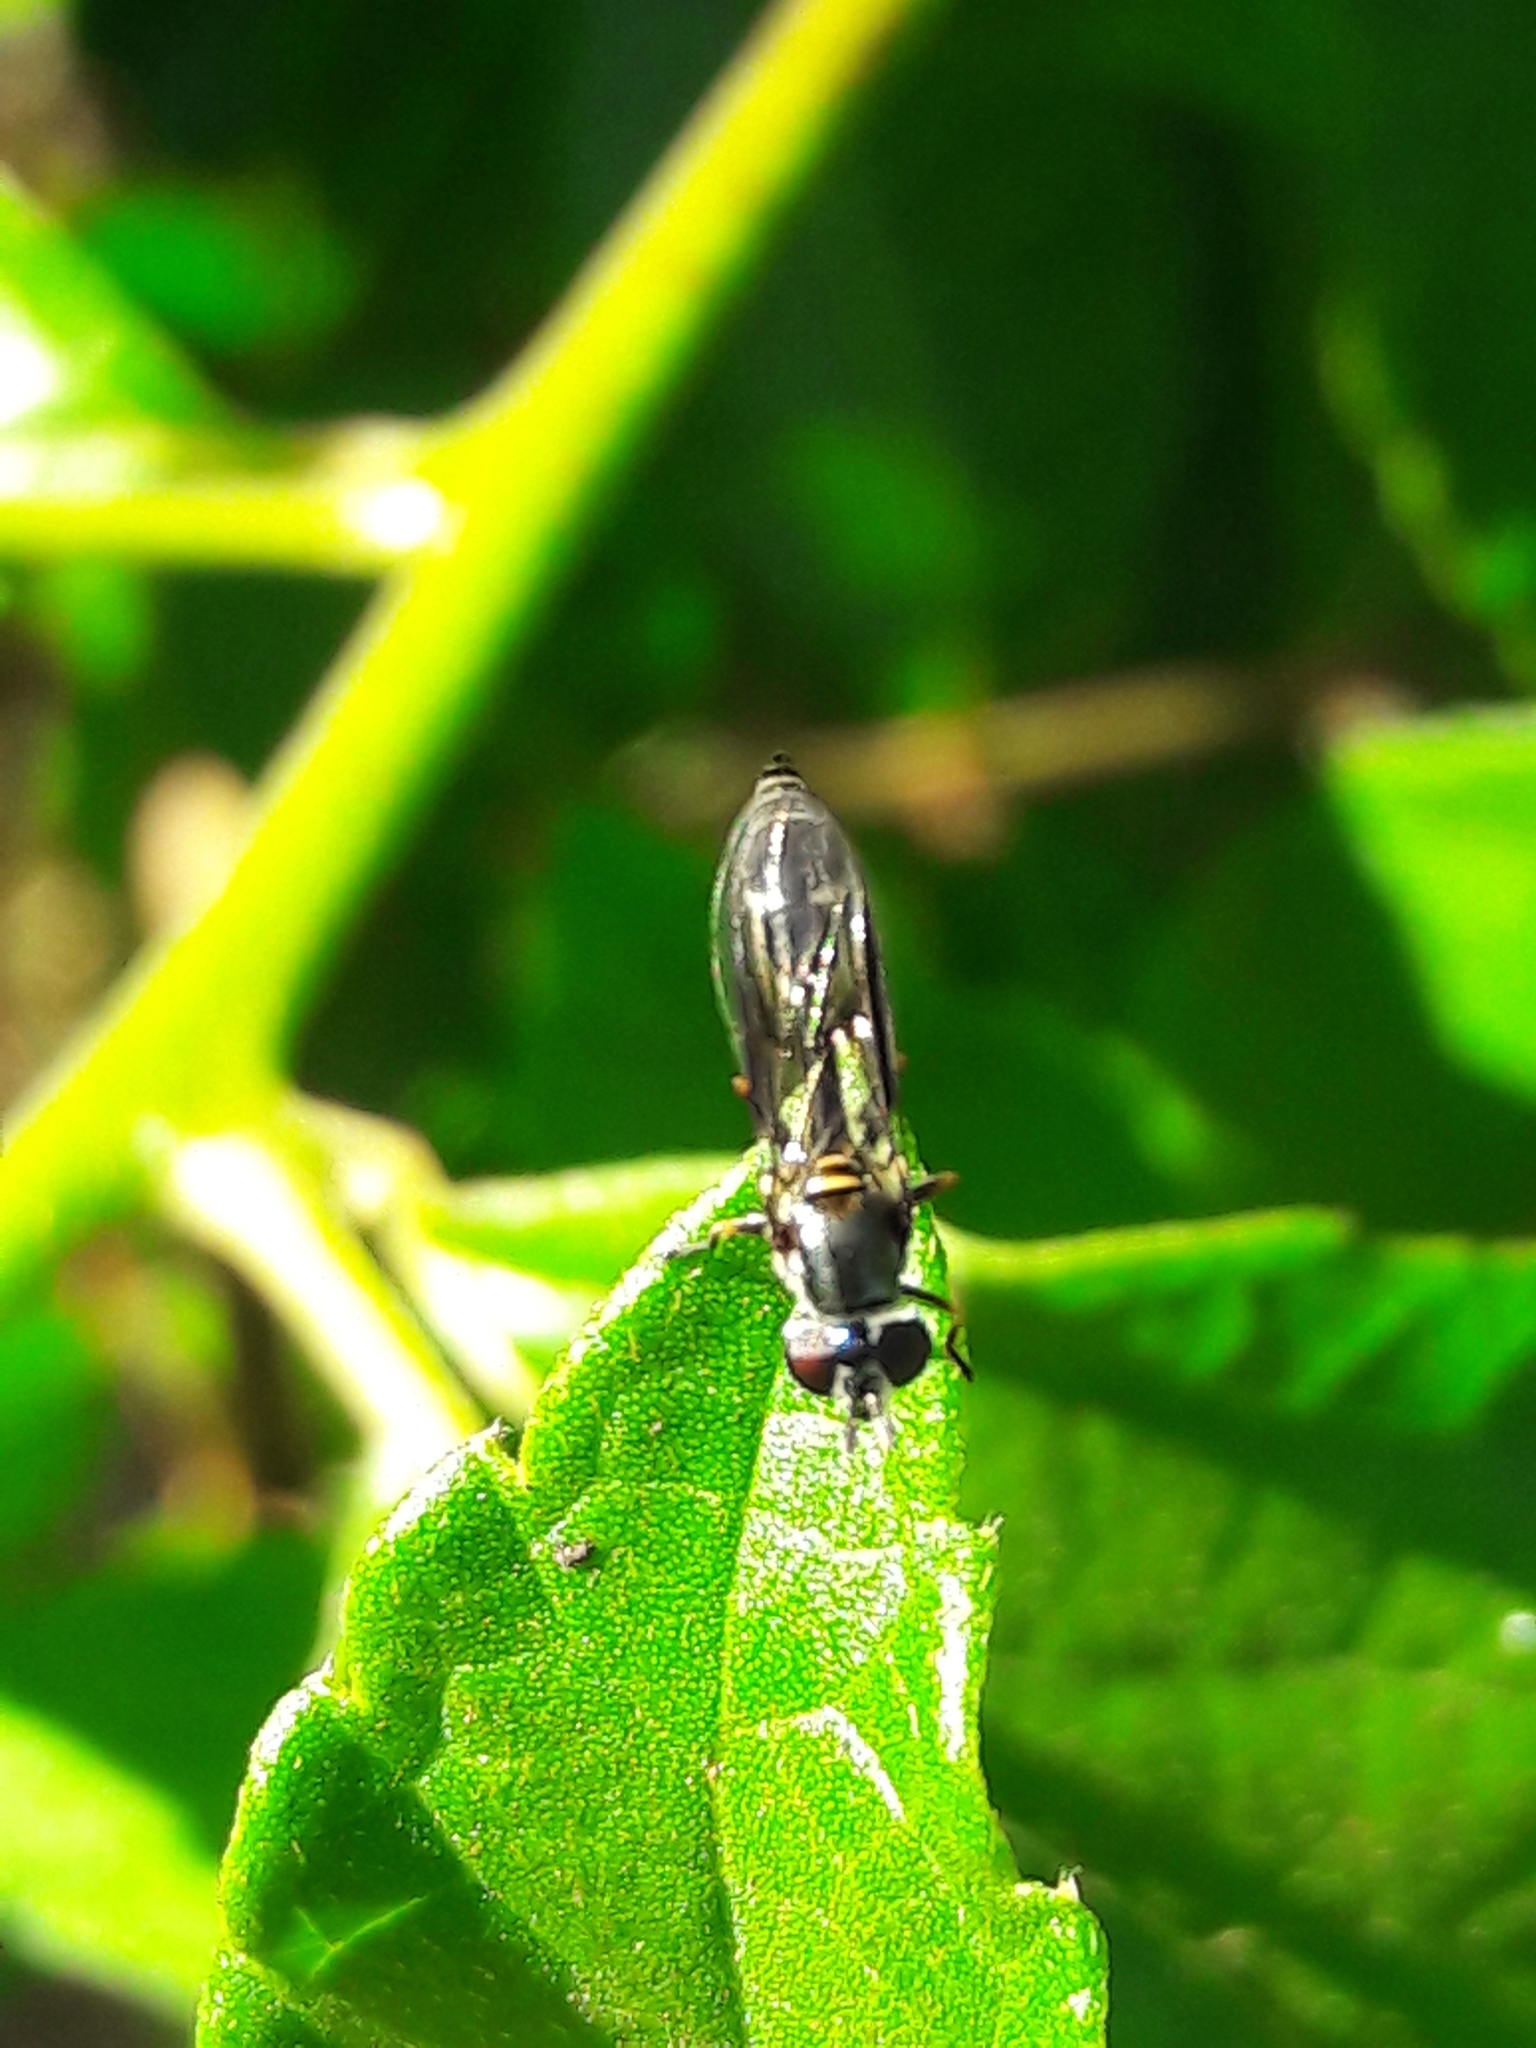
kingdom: Animalia
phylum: Arthropoda
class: Insecta
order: Diptera
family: Syrphidae
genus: Dioprosopa
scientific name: Dioprosopa clavatus
